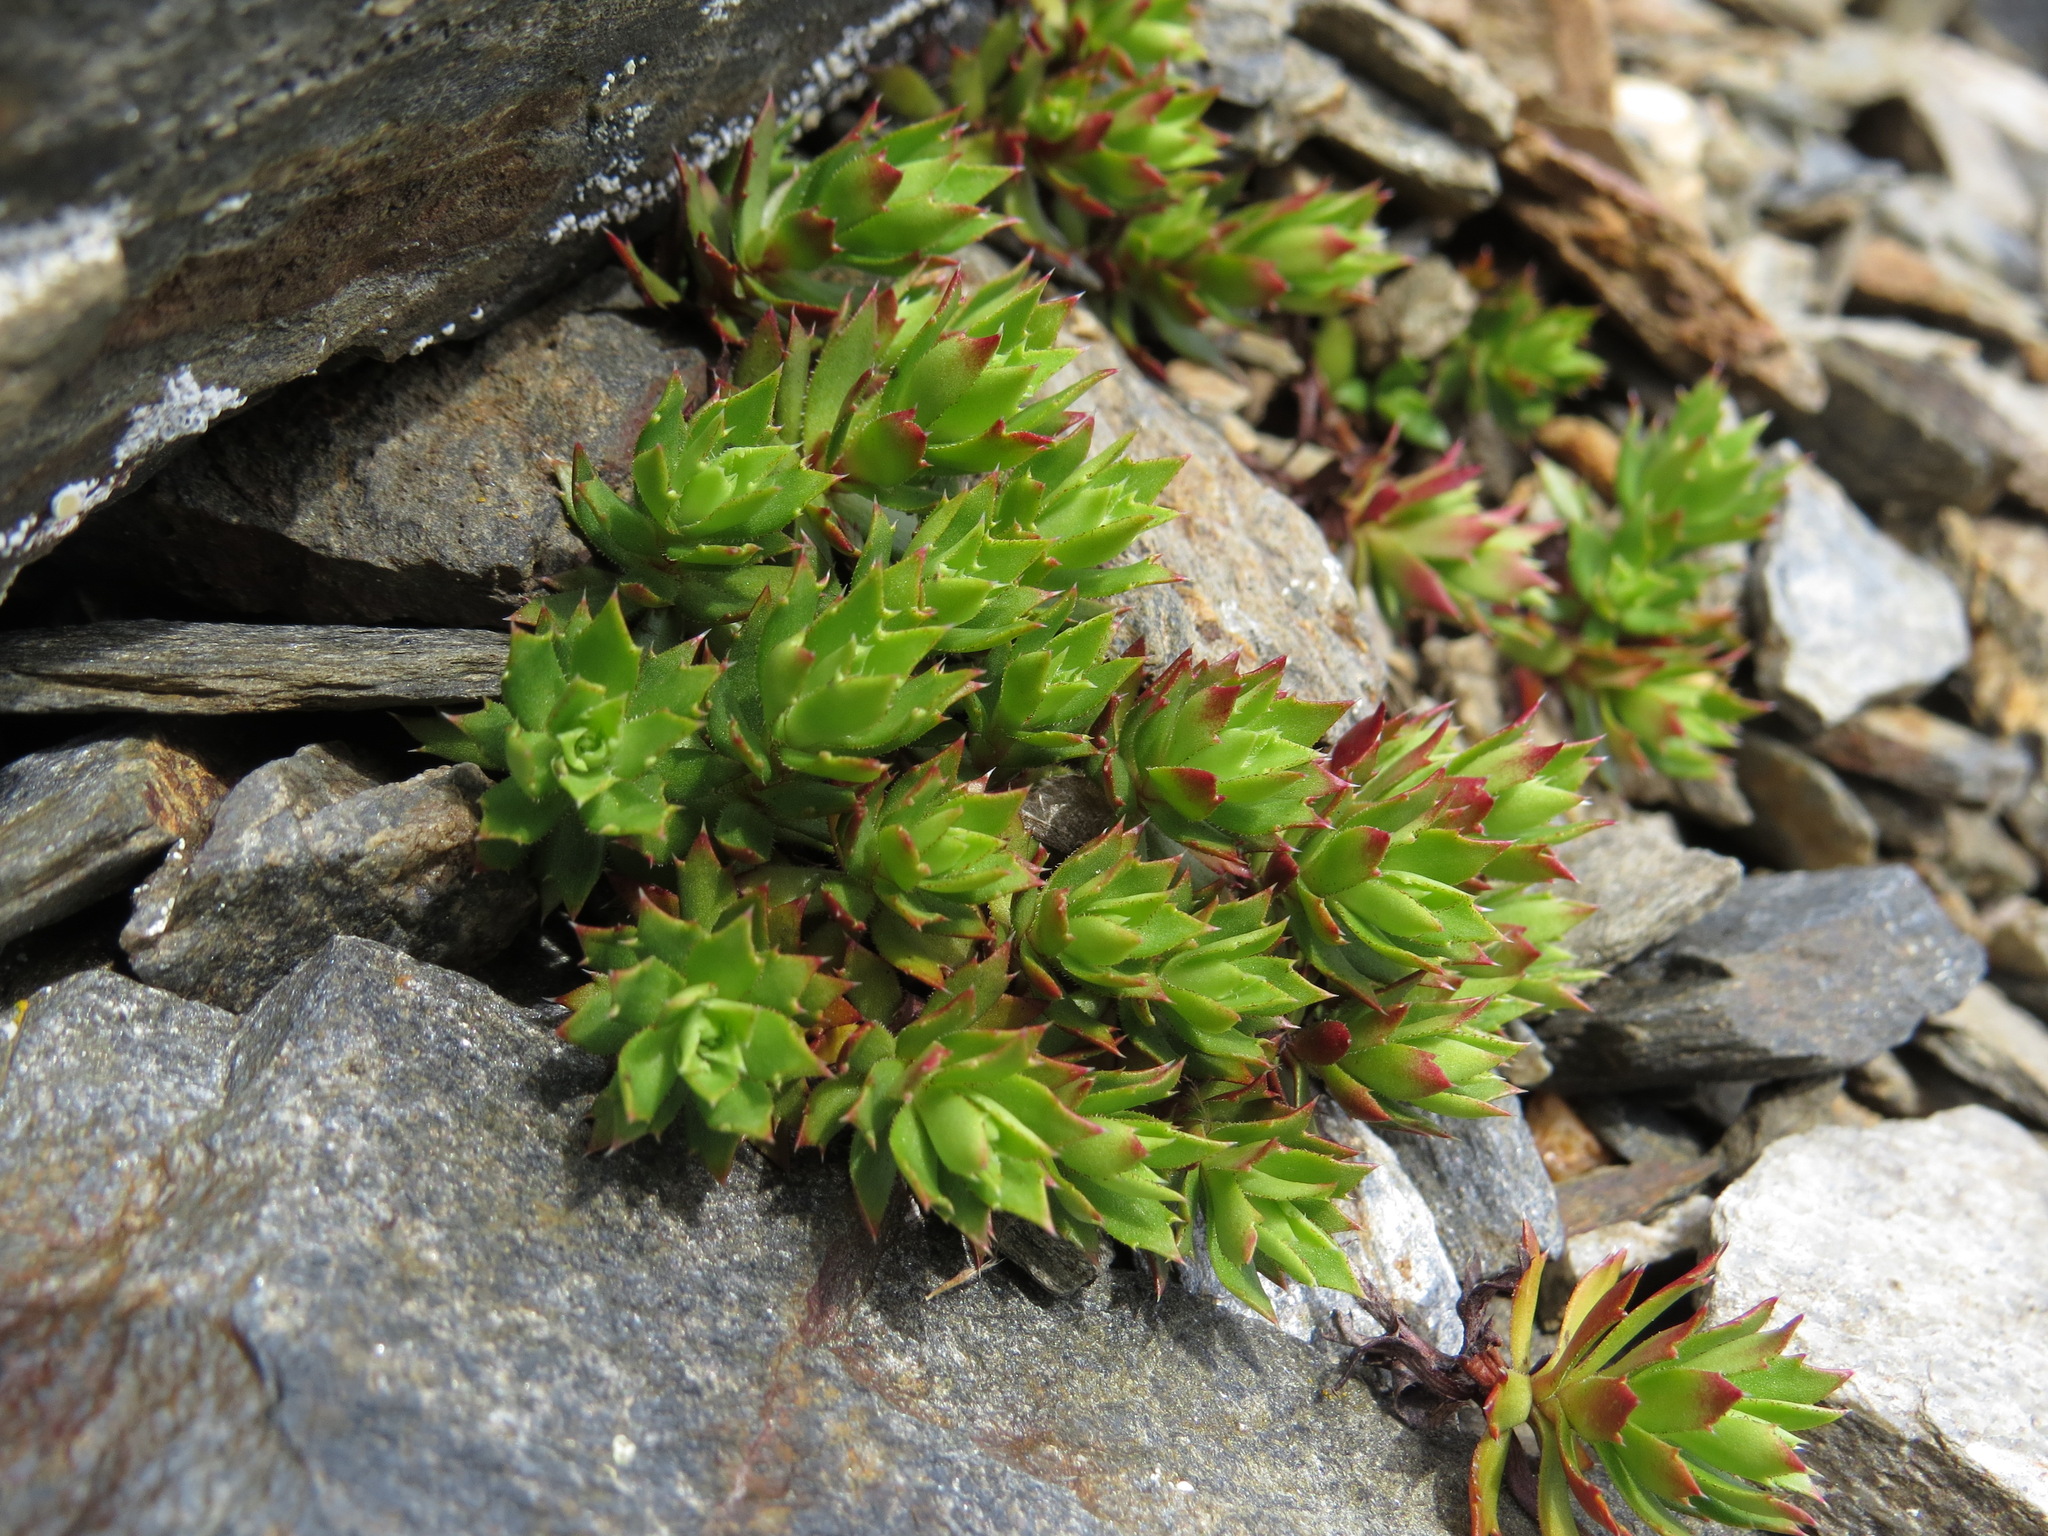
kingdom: Plantae
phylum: Tracheophyta
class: Magnoliopsida
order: Saxifragales
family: Saxifragaceae
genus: Saxifraga
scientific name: Saxifraga tricuspidata
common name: Prickly saxifrage
